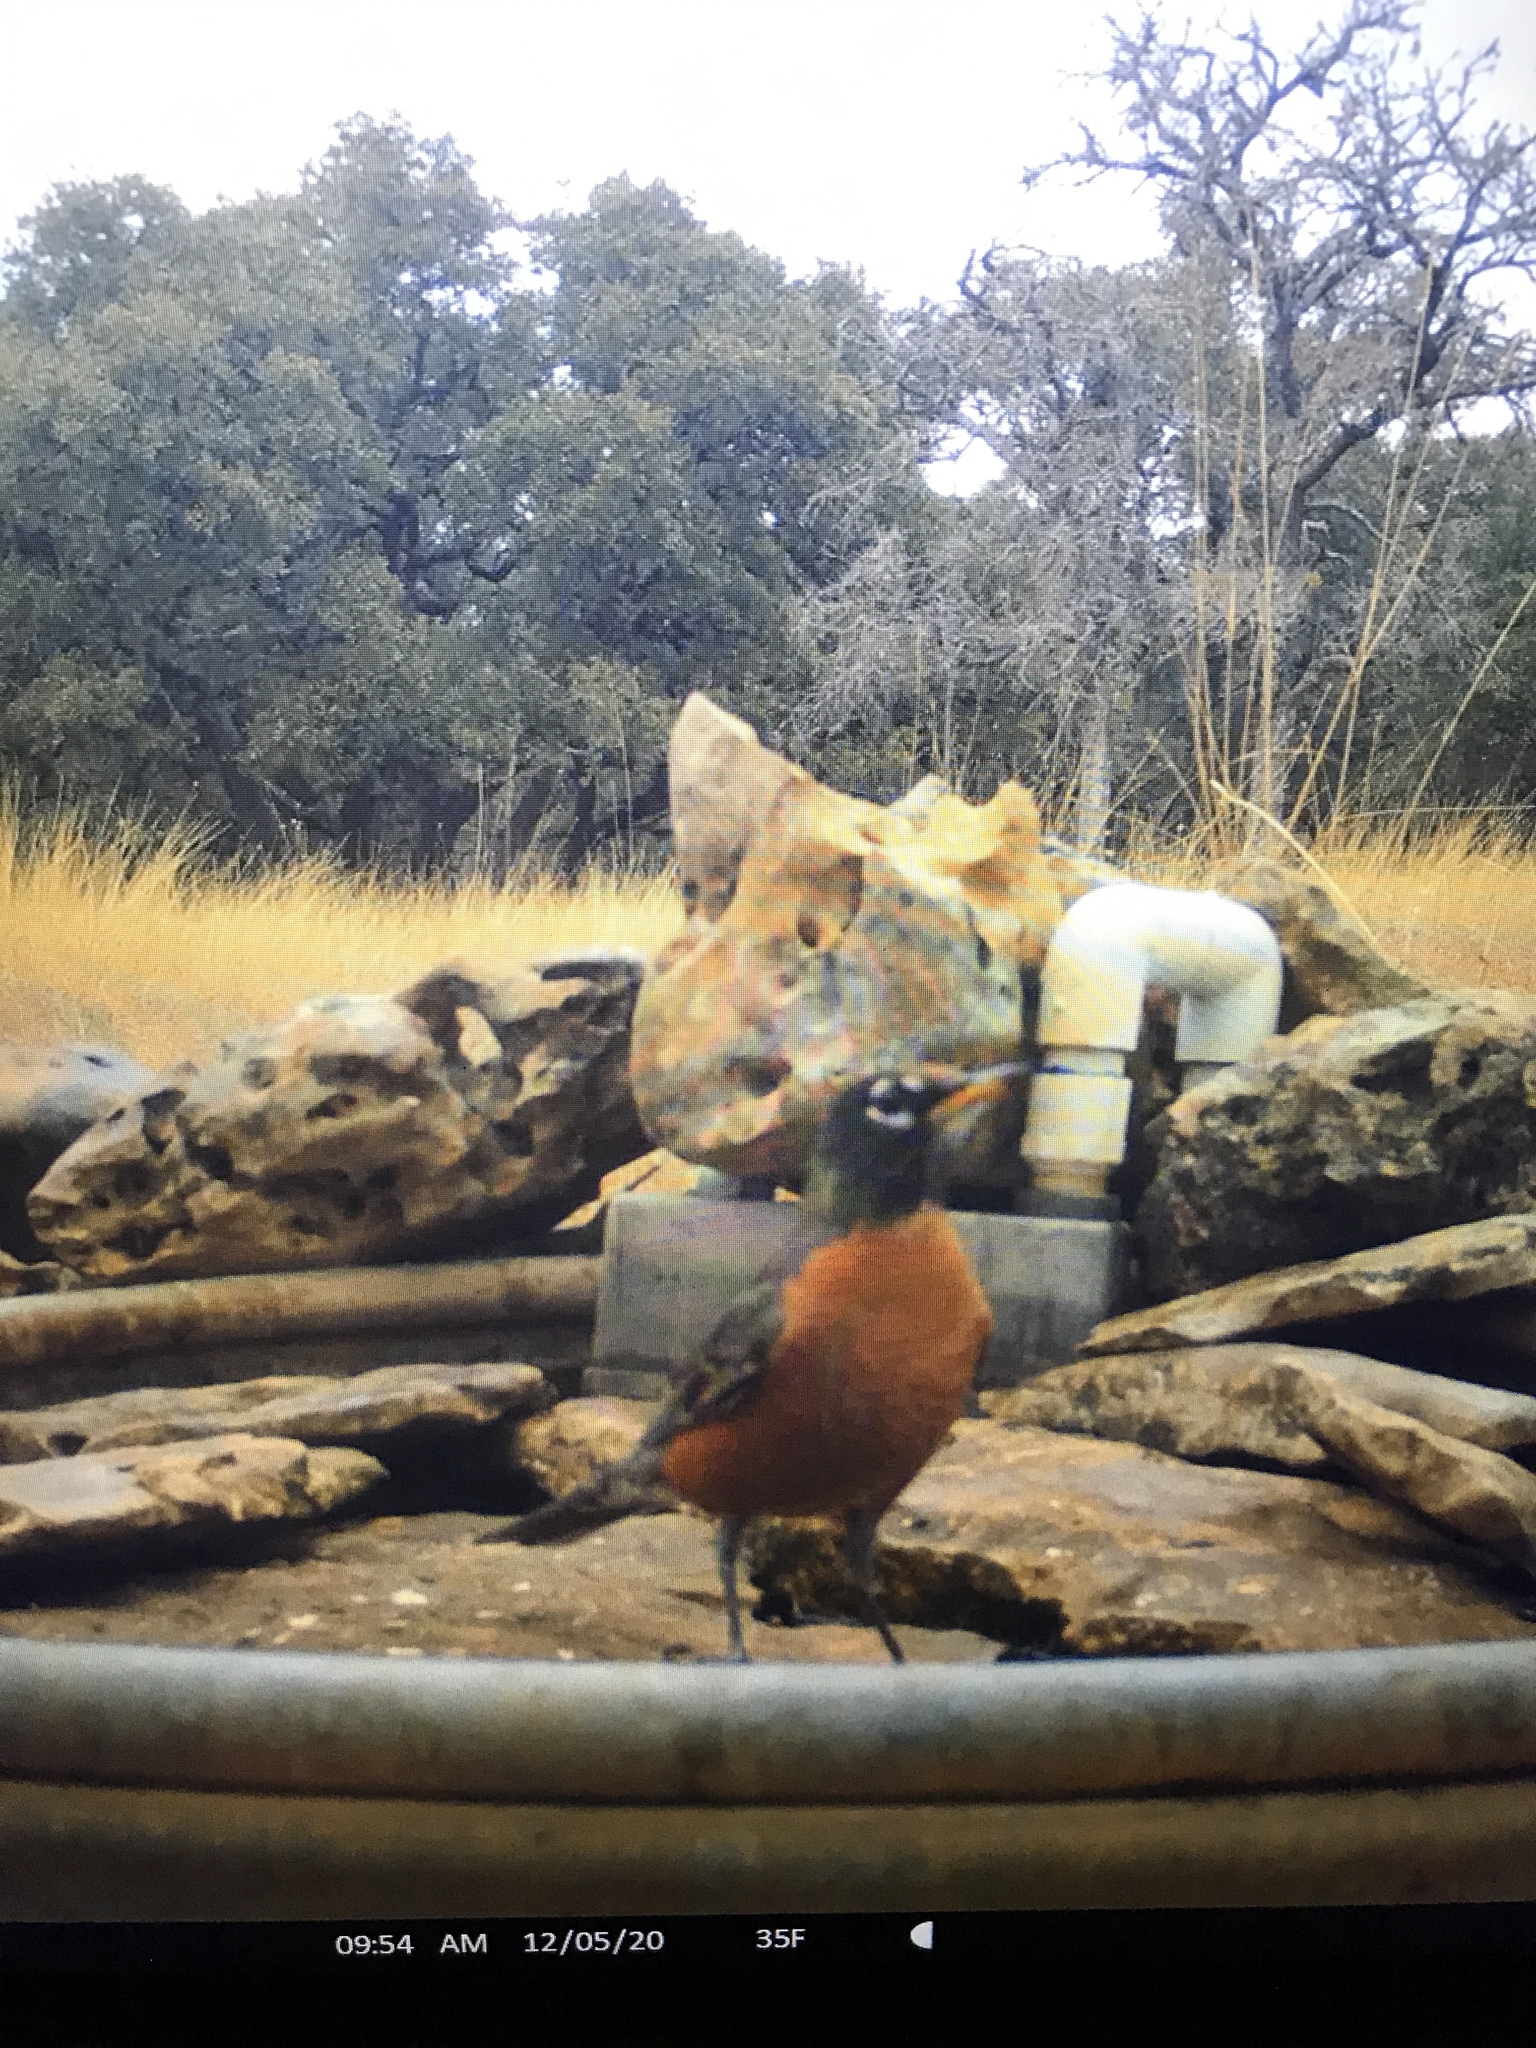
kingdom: Animalia
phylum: Chordata
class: Aves
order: Passeriformes
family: Turdidae
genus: Turdus
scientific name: Turdus migratorius
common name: American robin
